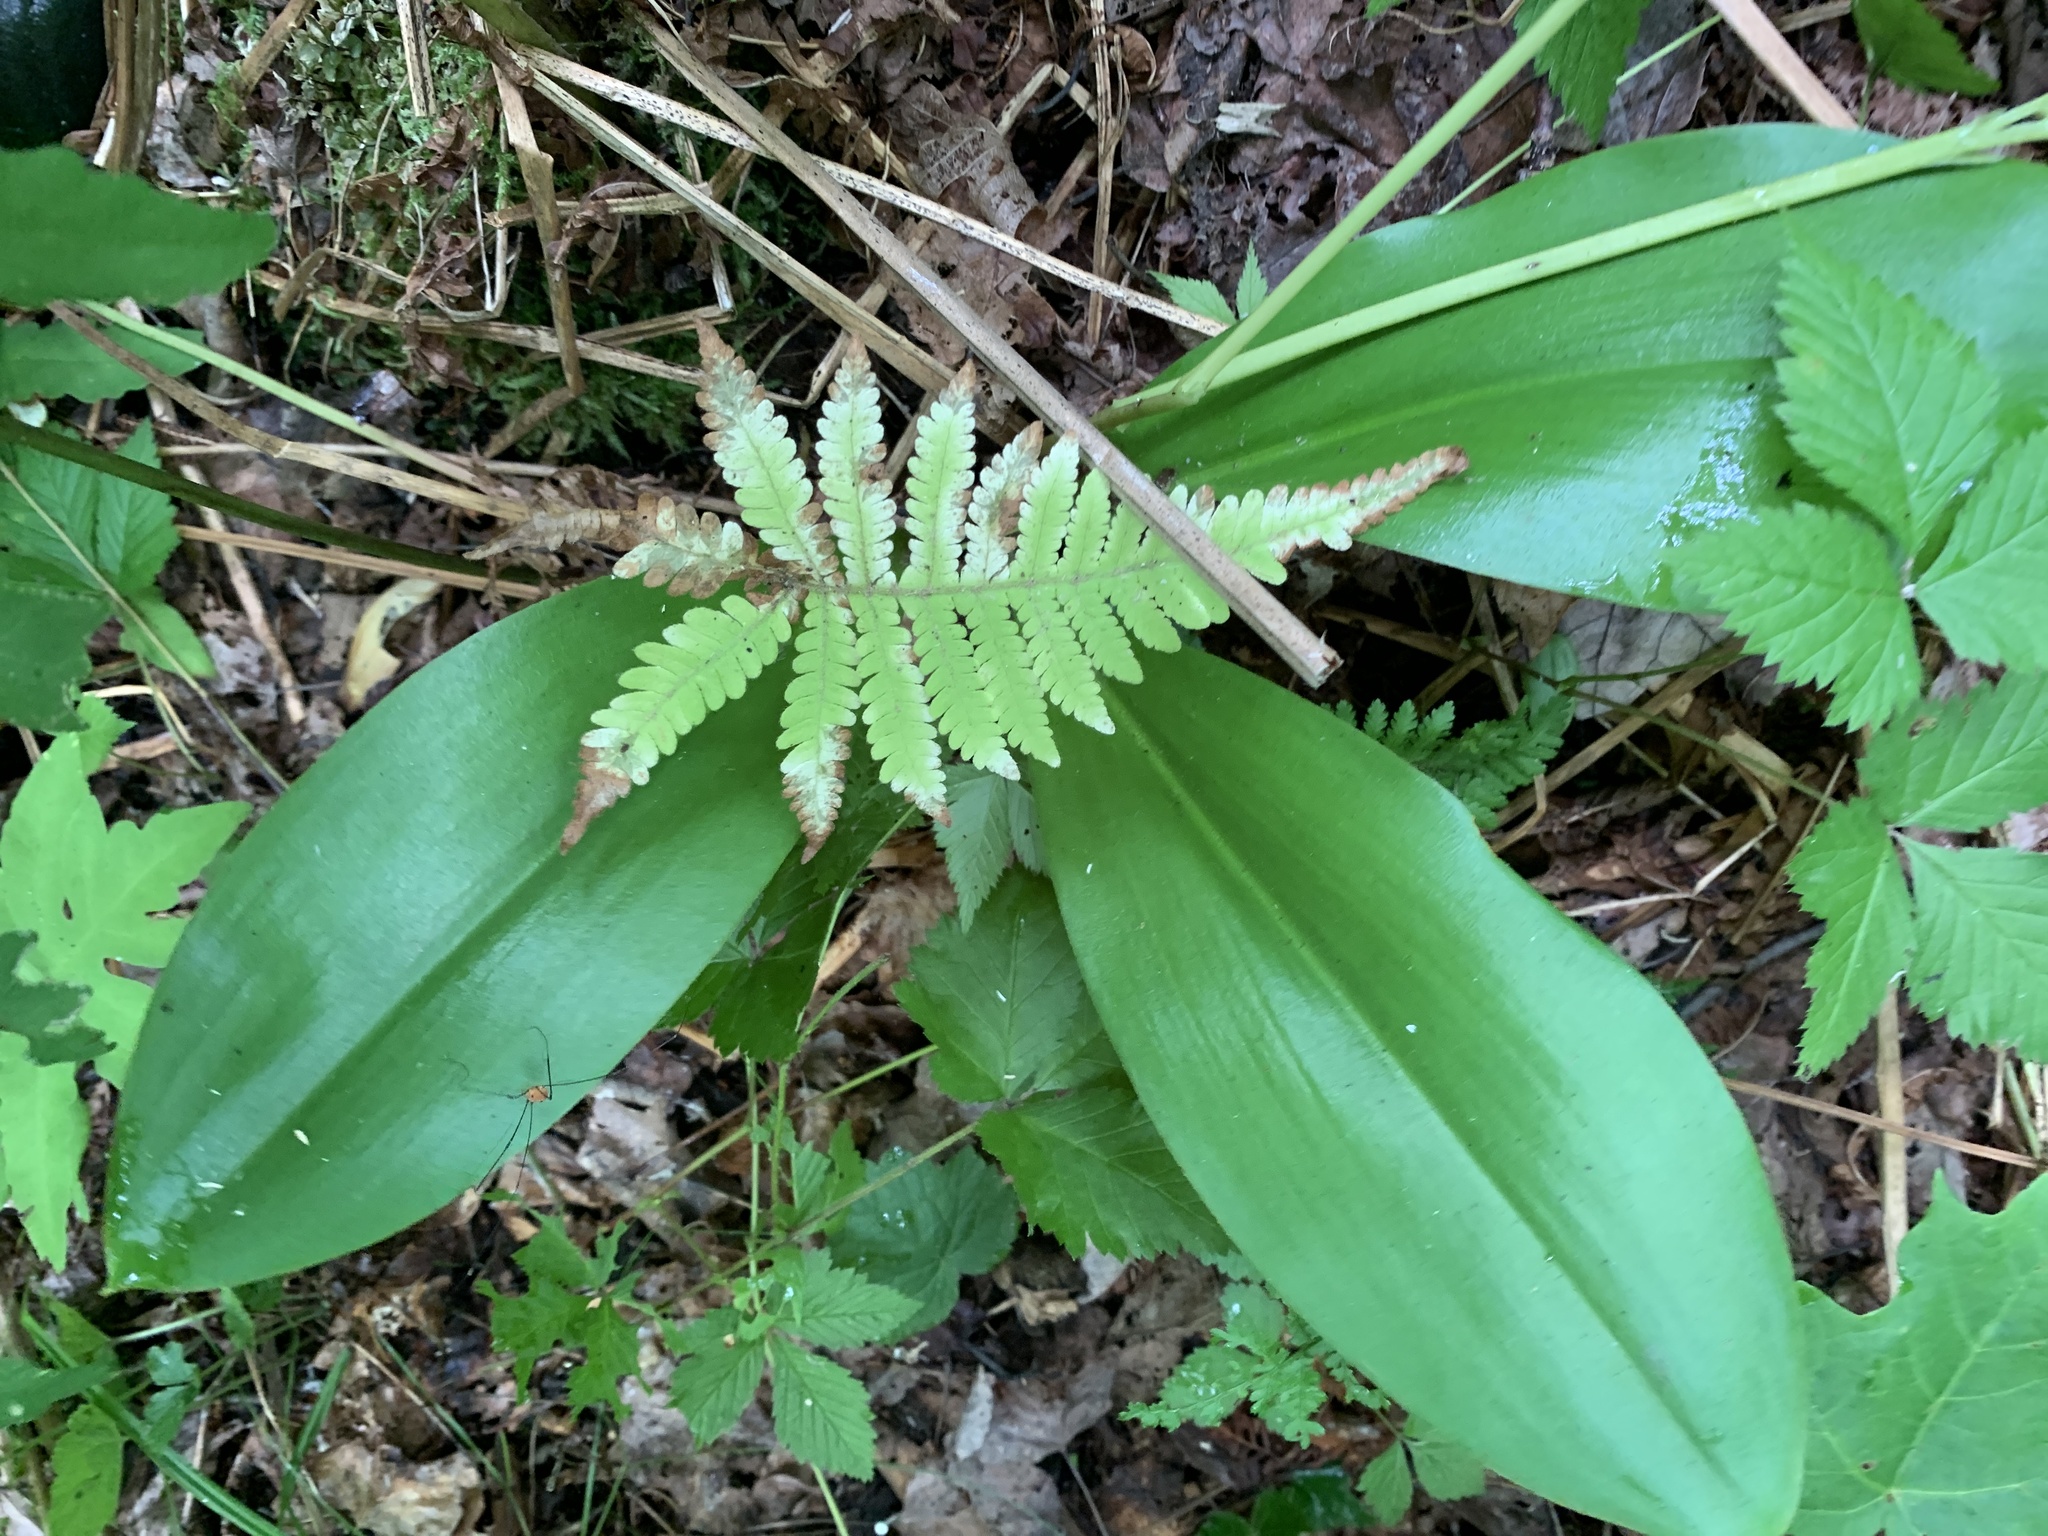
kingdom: Plantae
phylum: Tracheophyta
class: Liliopsida
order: Liliales
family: Liliaceae
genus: Clintonia
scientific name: Clintonia borealis
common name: Yellow clintonia
